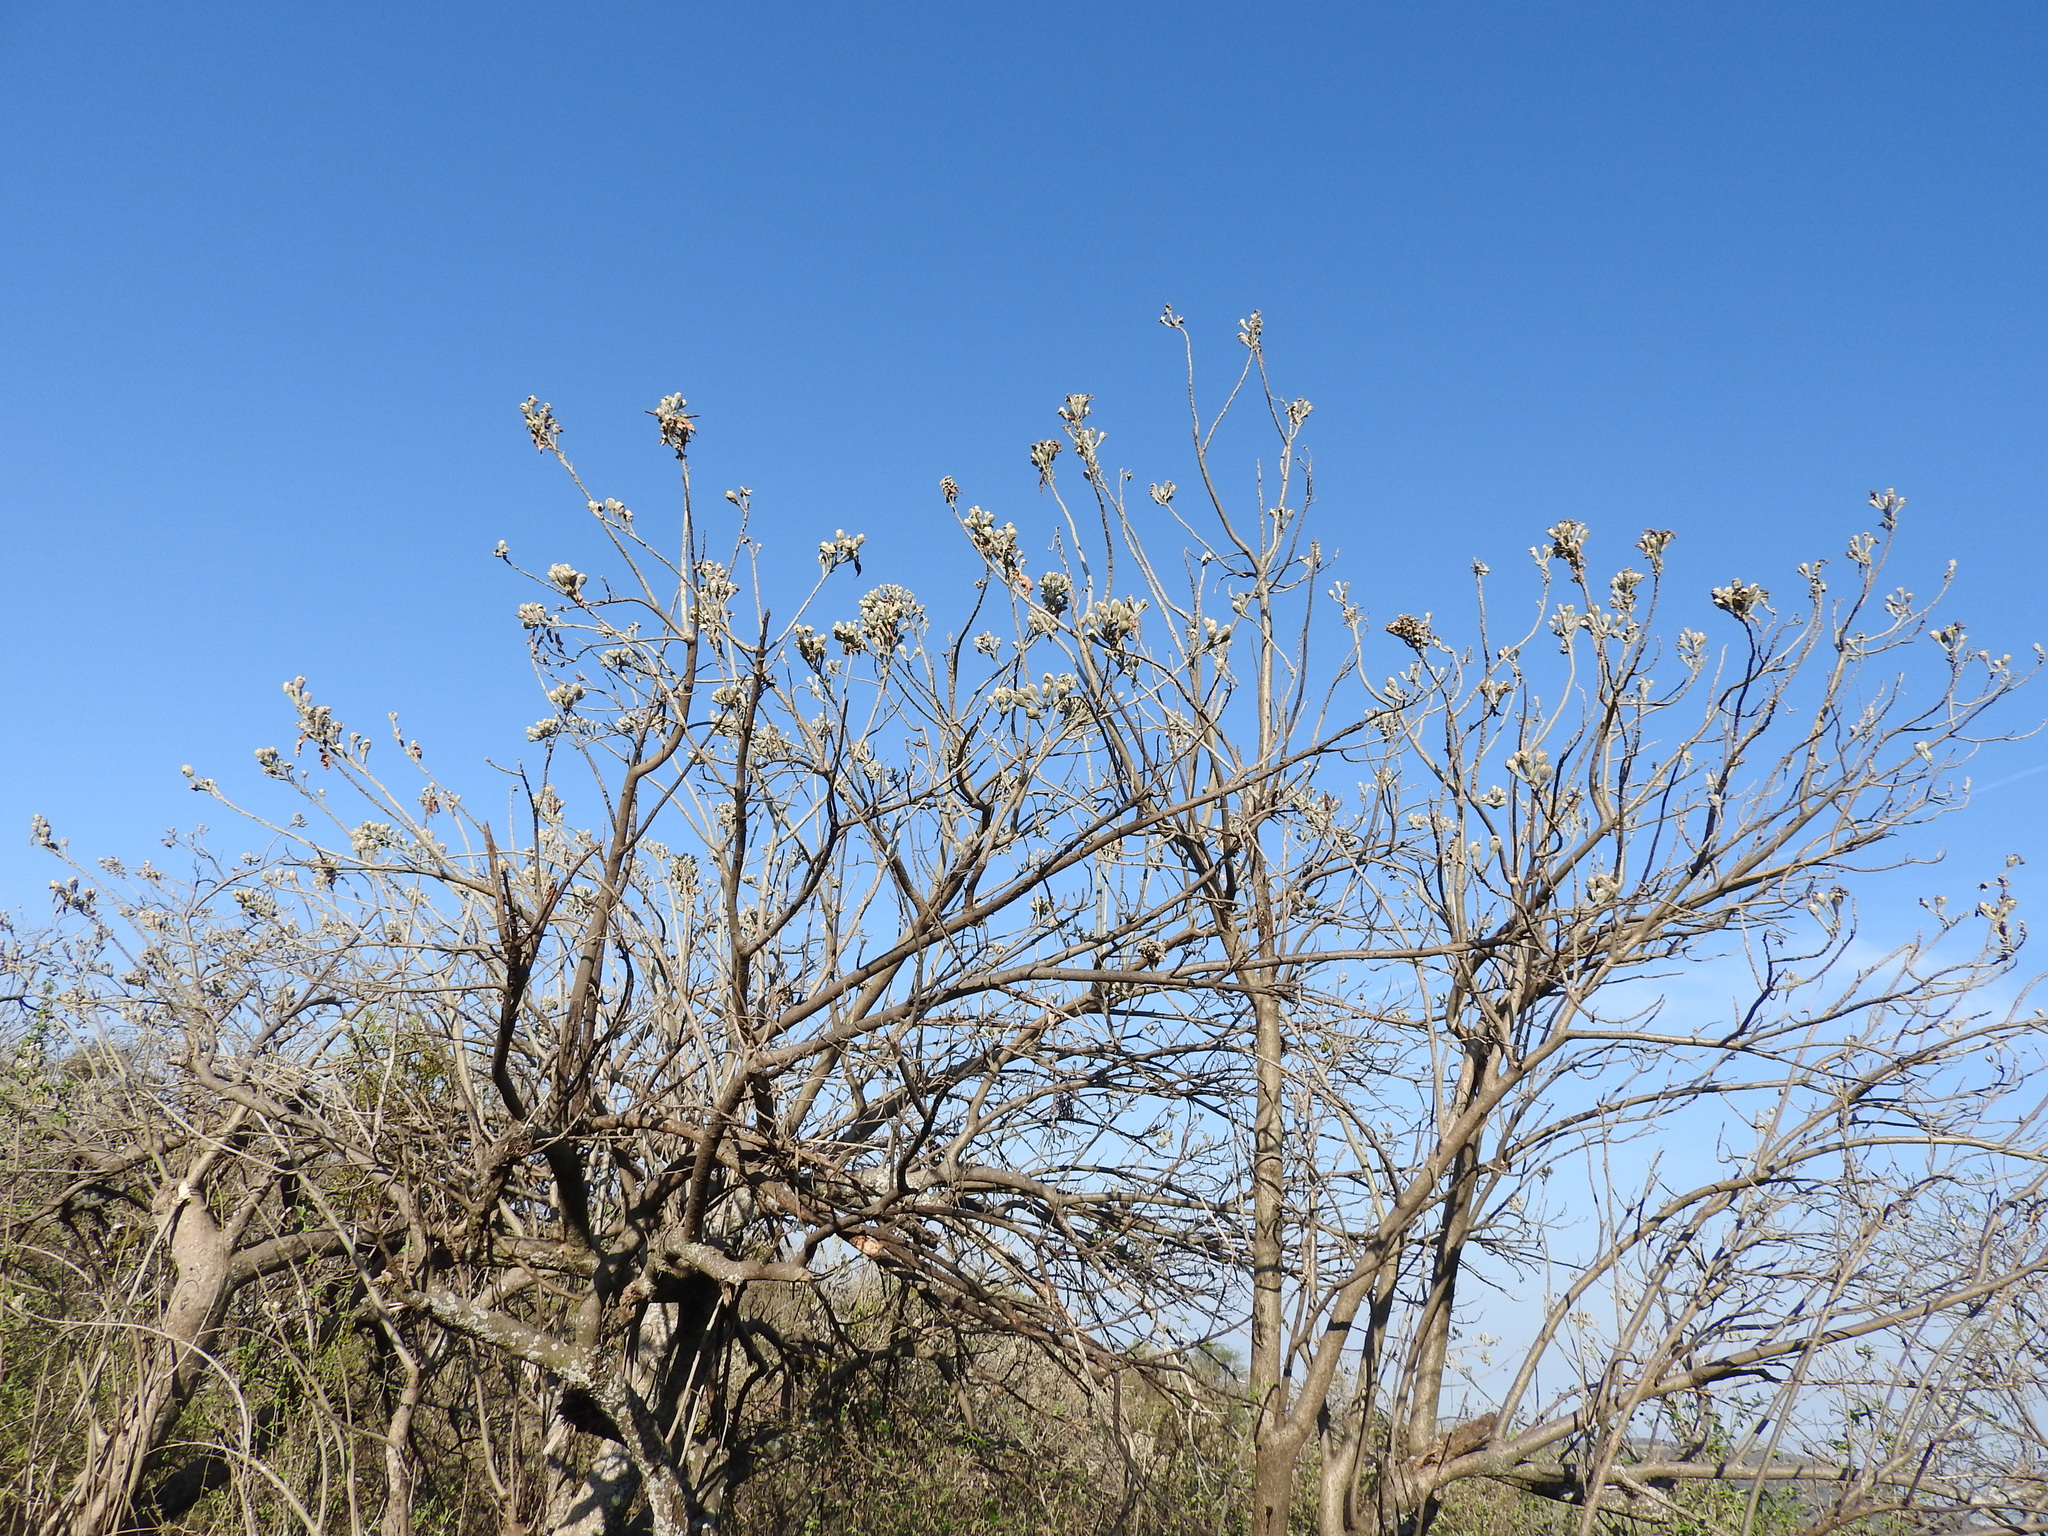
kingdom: Plantae
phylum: Tracheophyta
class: Magnoliopsida
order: Solanales
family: Convolvulaceae
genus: Ipomoea
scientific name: Ipomoea murucoides
